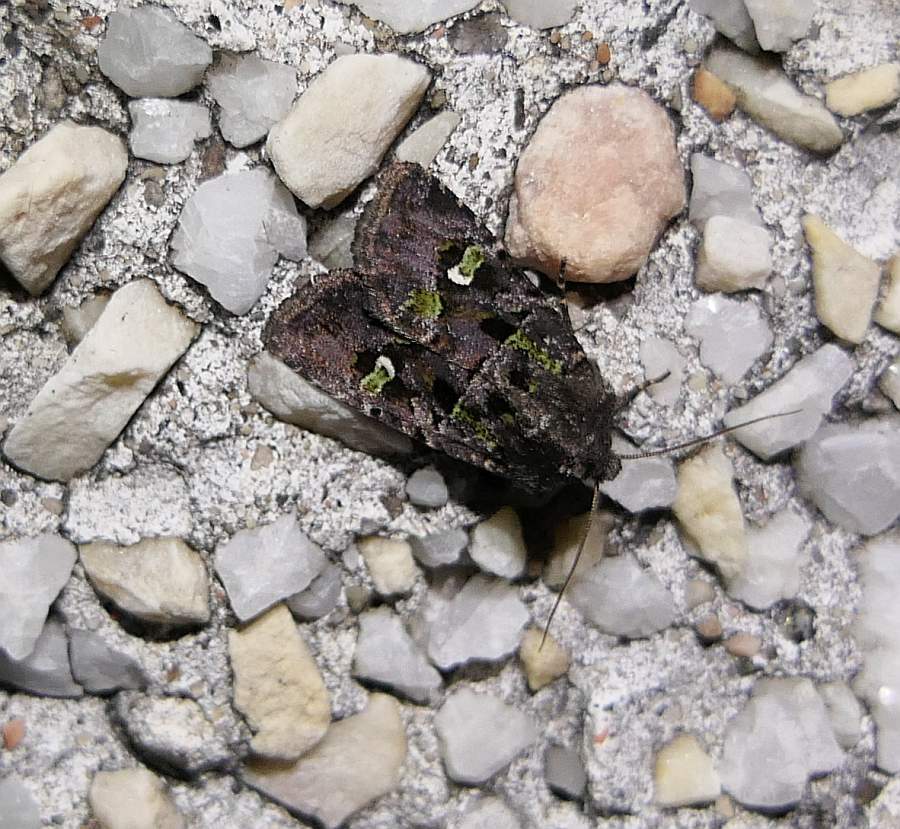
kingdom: Animalia
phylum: Arthropoda
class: Insecta
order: Lepidoptera
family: Noctuidae
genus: Lacinipolia
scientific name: Lacinipolia renigera
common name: Kidney-spotted minor
